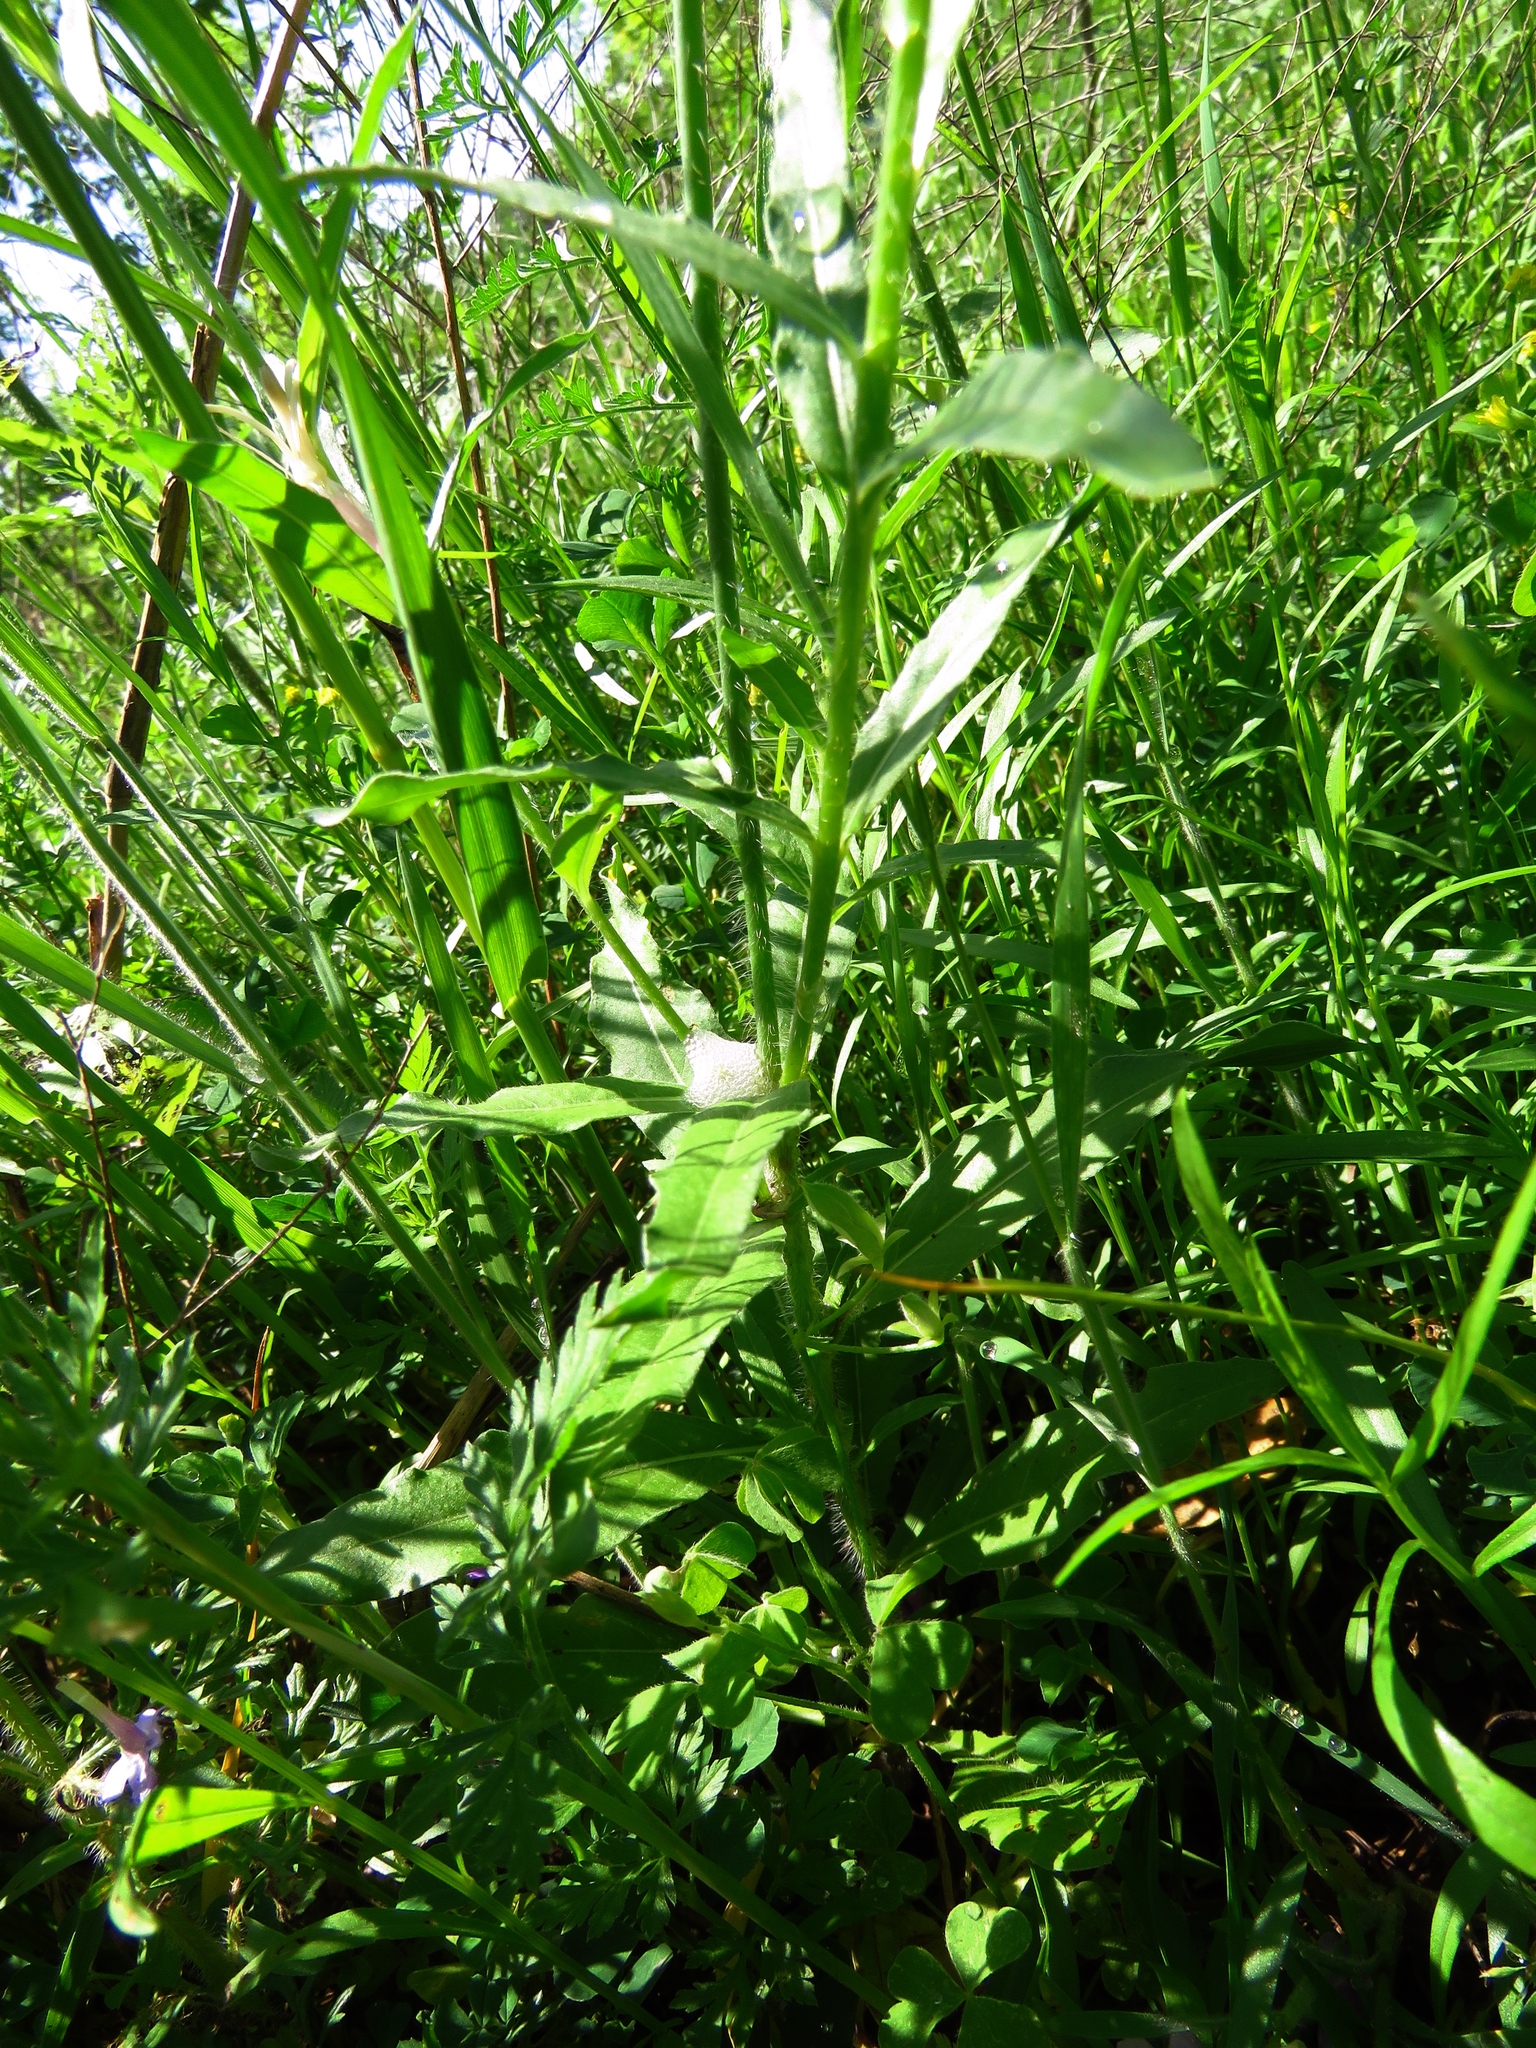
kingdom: Plantae
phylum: Tracheophyta
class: Magnoliopsida
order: Myrtales
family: Onagraceae
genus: Oenothera
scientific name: Oenothera suffulta
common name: Kisses
